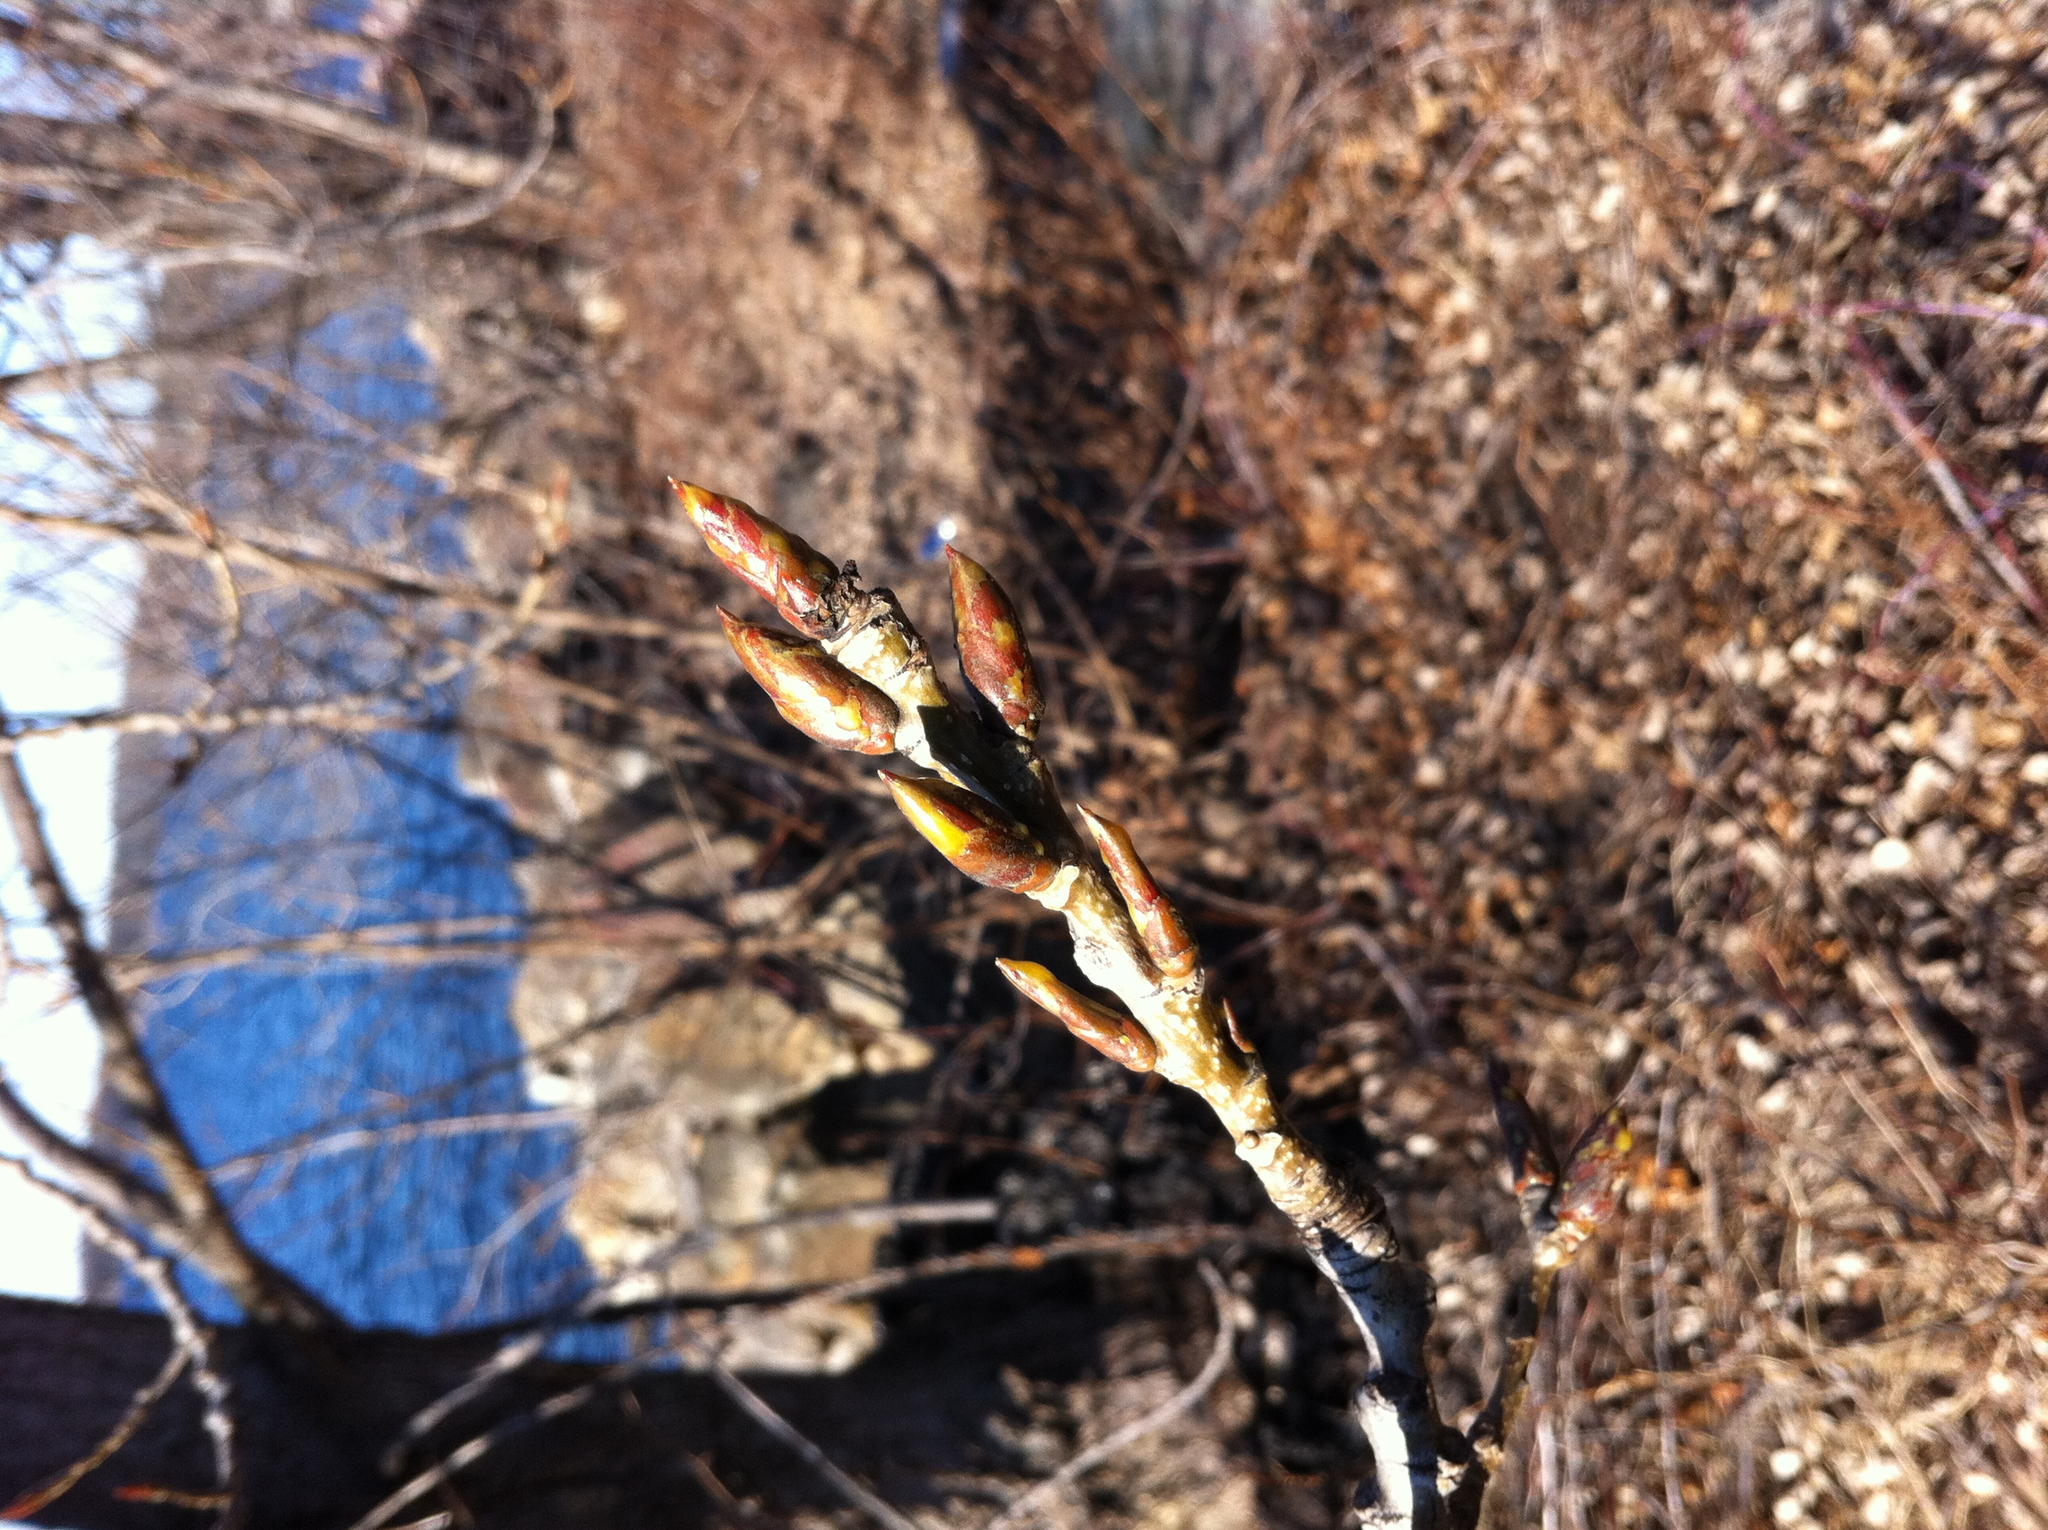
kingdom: Plantae
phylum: Tracheophyta
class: Magnoliopsida
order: Malpighiales
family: Salicaceae
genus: Populus
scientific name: Populus deltoides
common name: Eastern cottonwood
